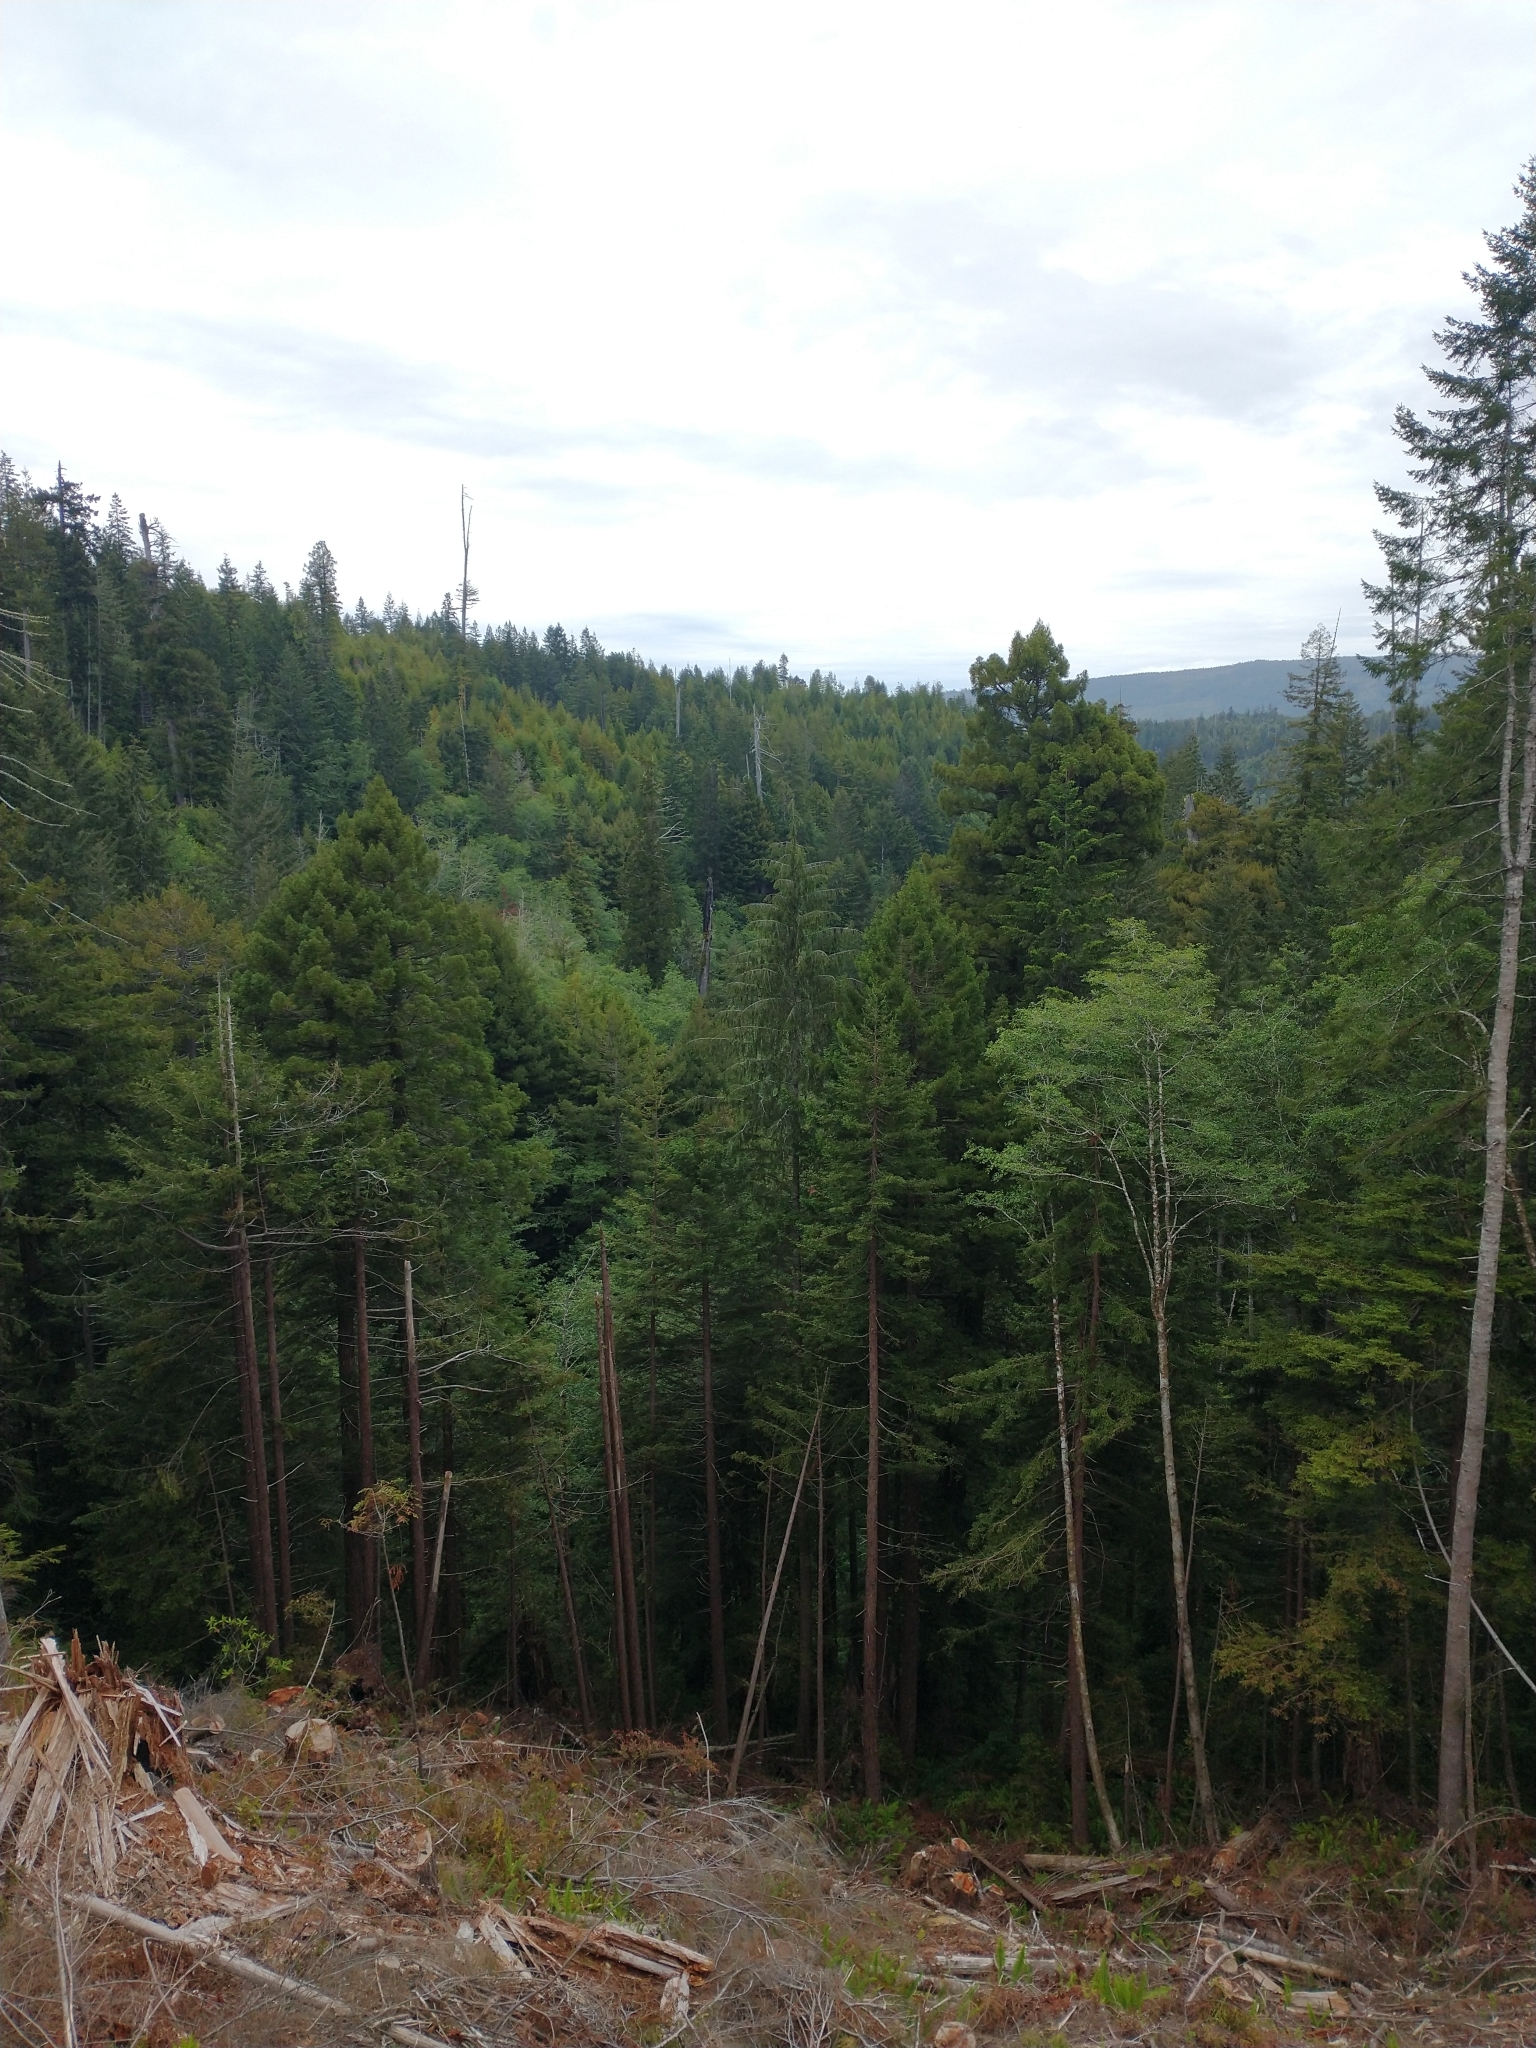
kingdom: Plantae
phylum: Tracheophyta
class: Pinopsida
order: Pinales
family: Cupressaceae
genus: Sequoia
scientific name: Sequoia sempervirens
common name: Coast redwood
